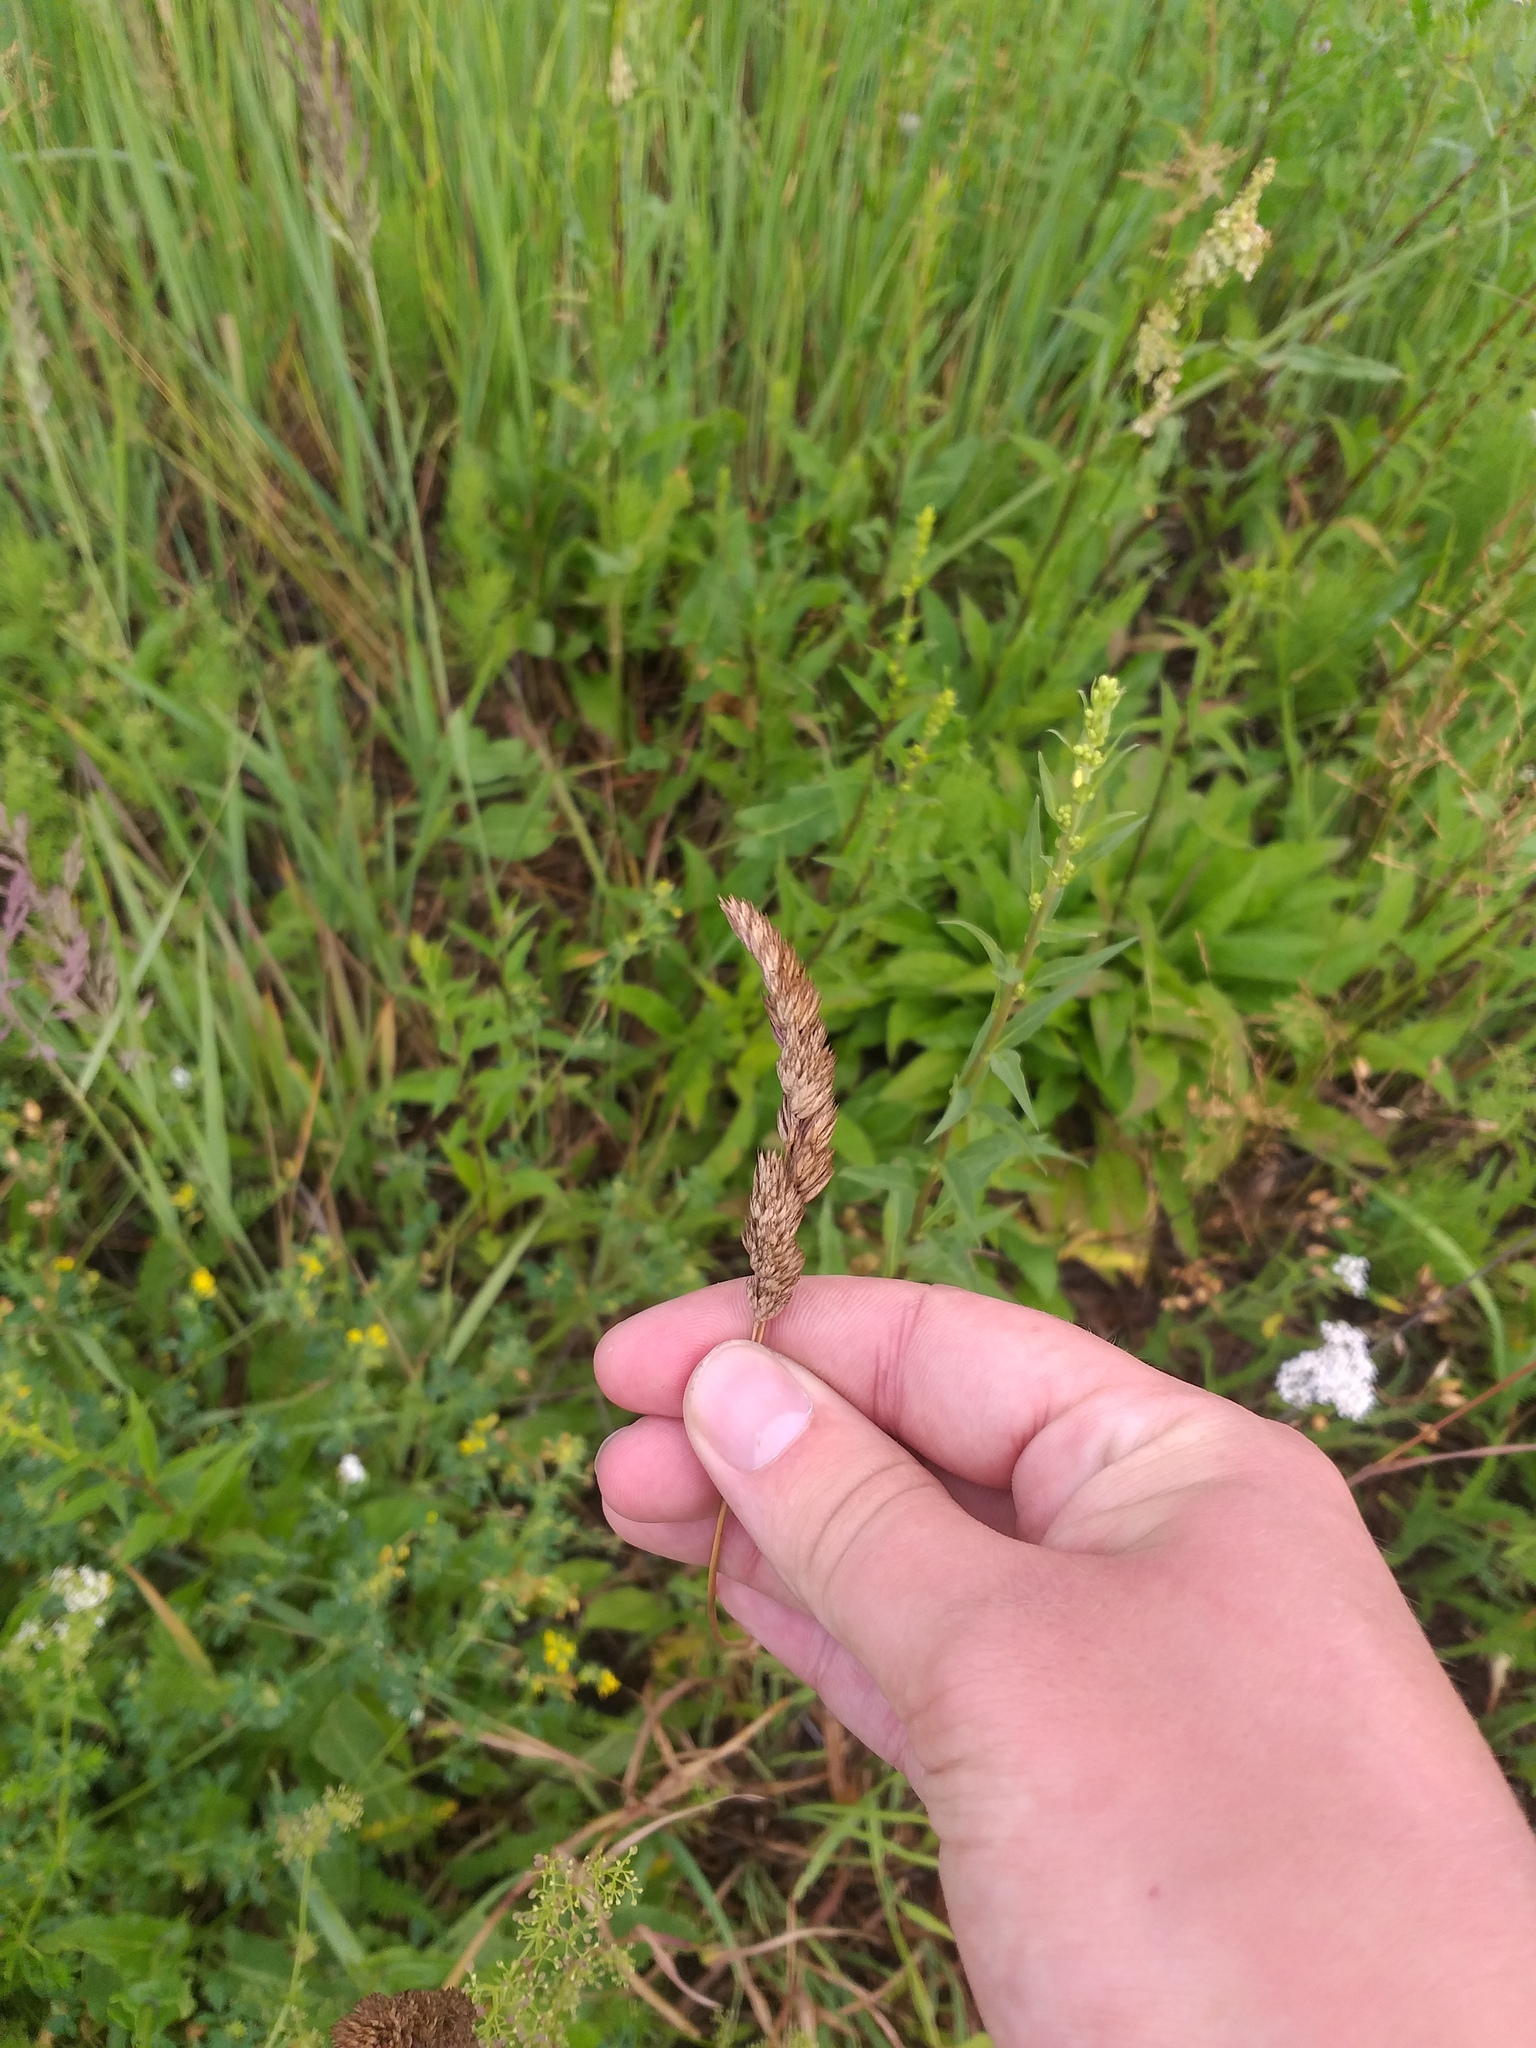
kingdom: Plantae
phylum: Tracheophyta
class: Liliopsida
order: Poales
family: Poaceae
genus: Dactylis
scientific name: Dactylis glomerata
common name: Orchardgrass
